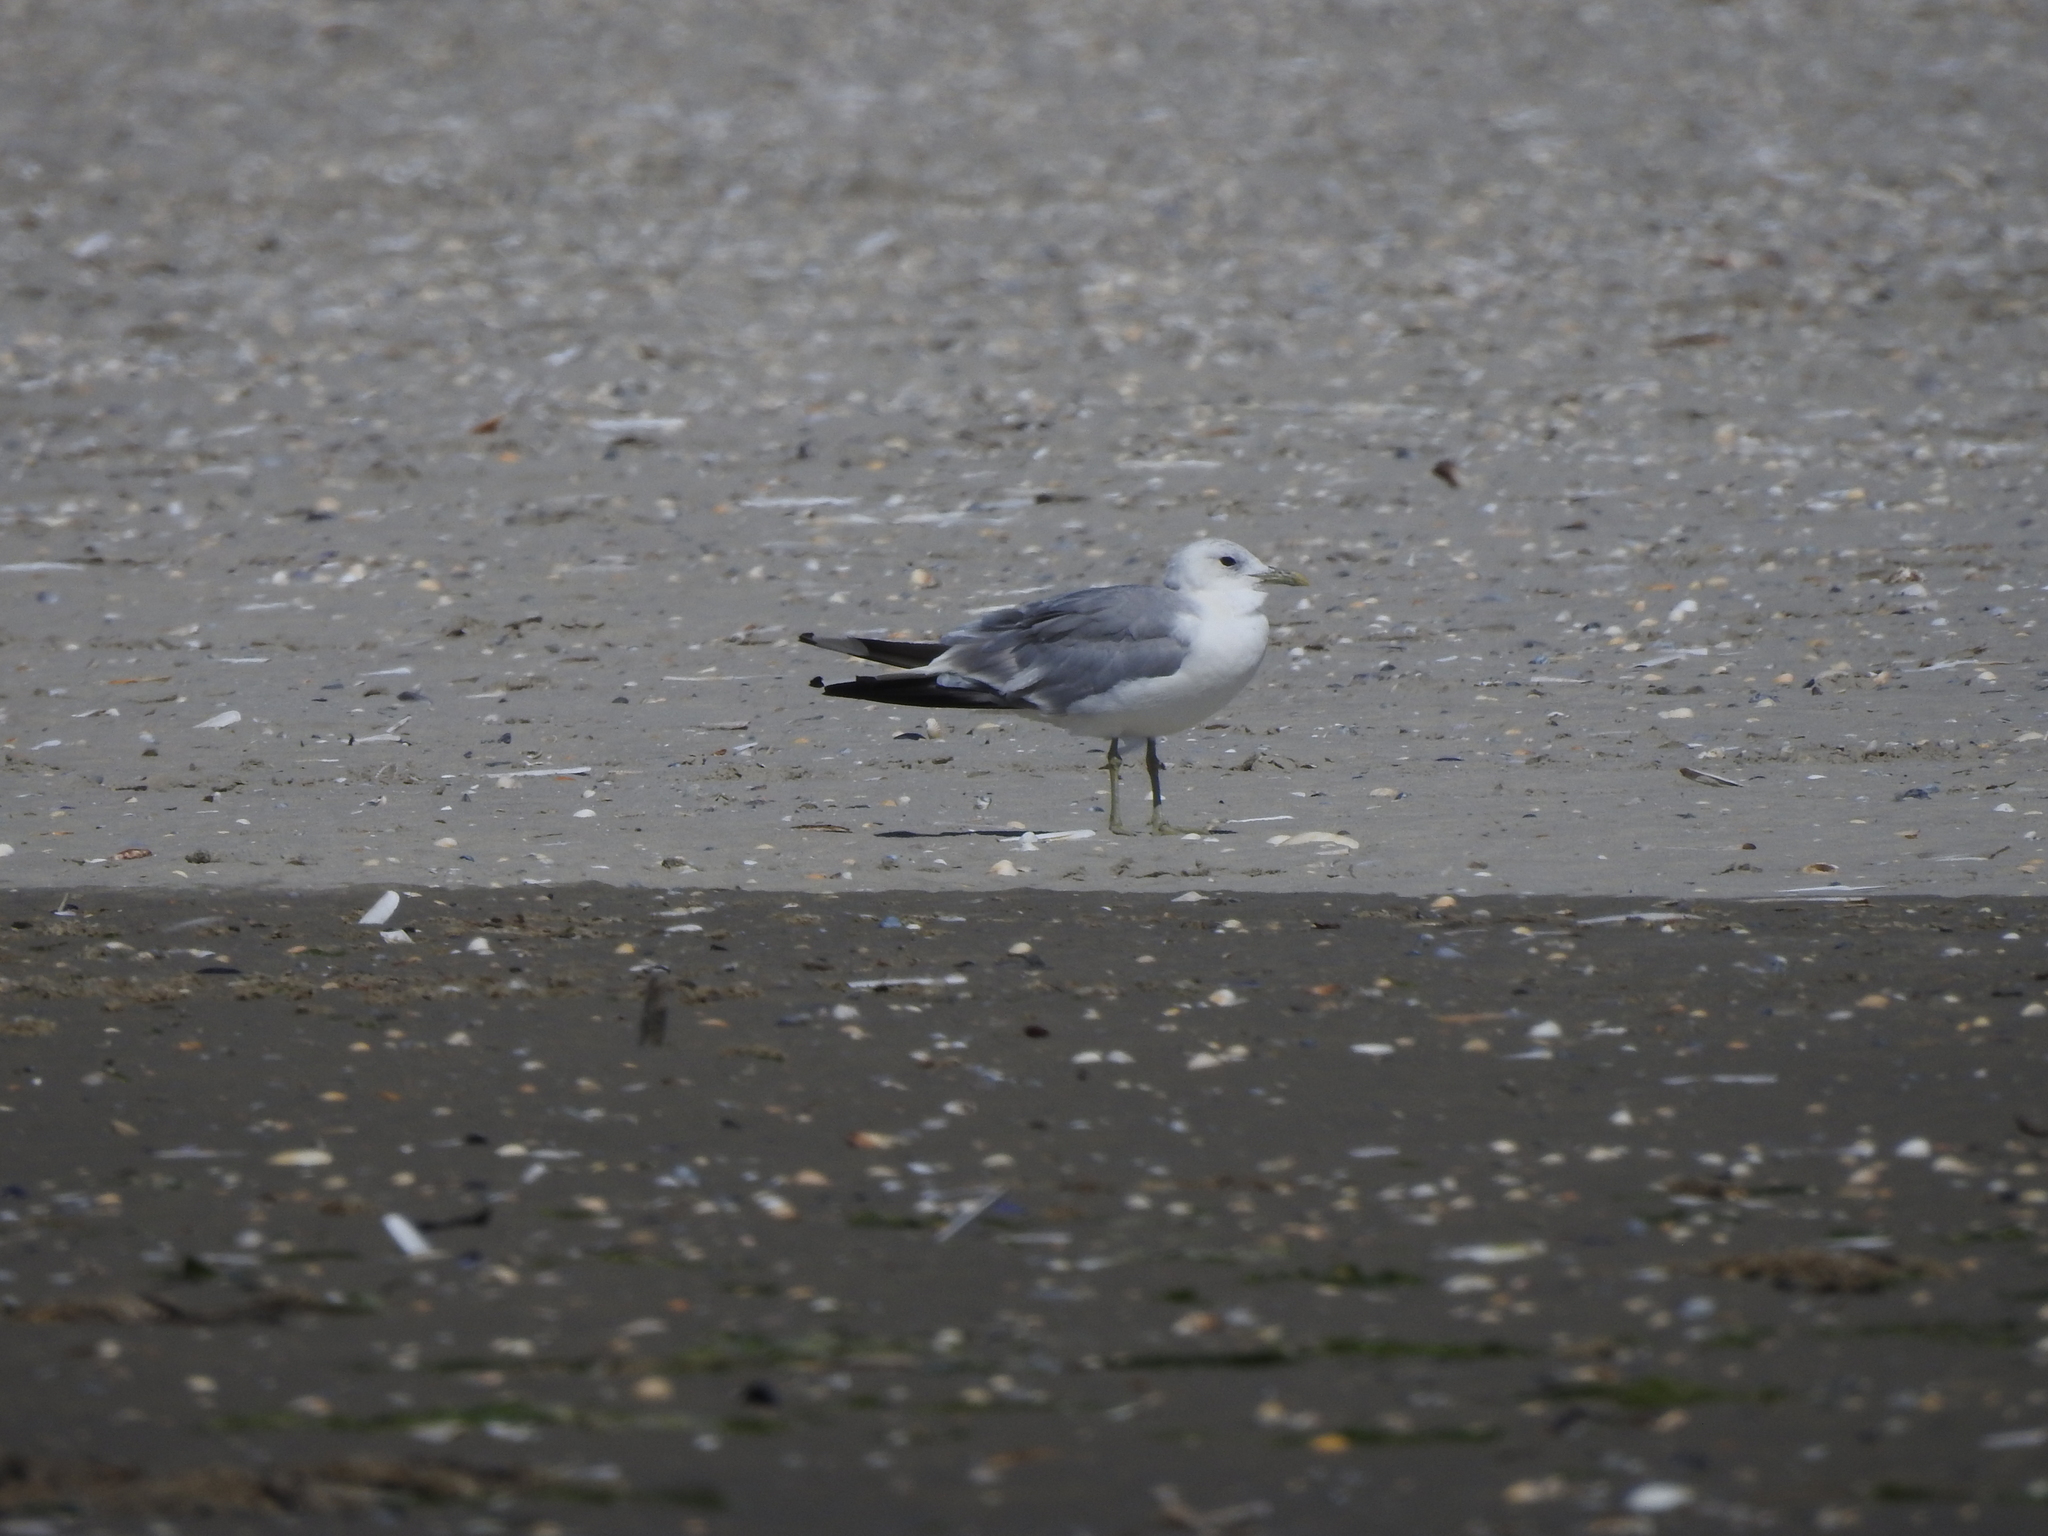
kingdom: Animalia
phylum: Chordata
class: Aves
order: Charadriiformes
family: Laridae
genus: Larus
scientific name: Larus canus
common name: Mew gull
